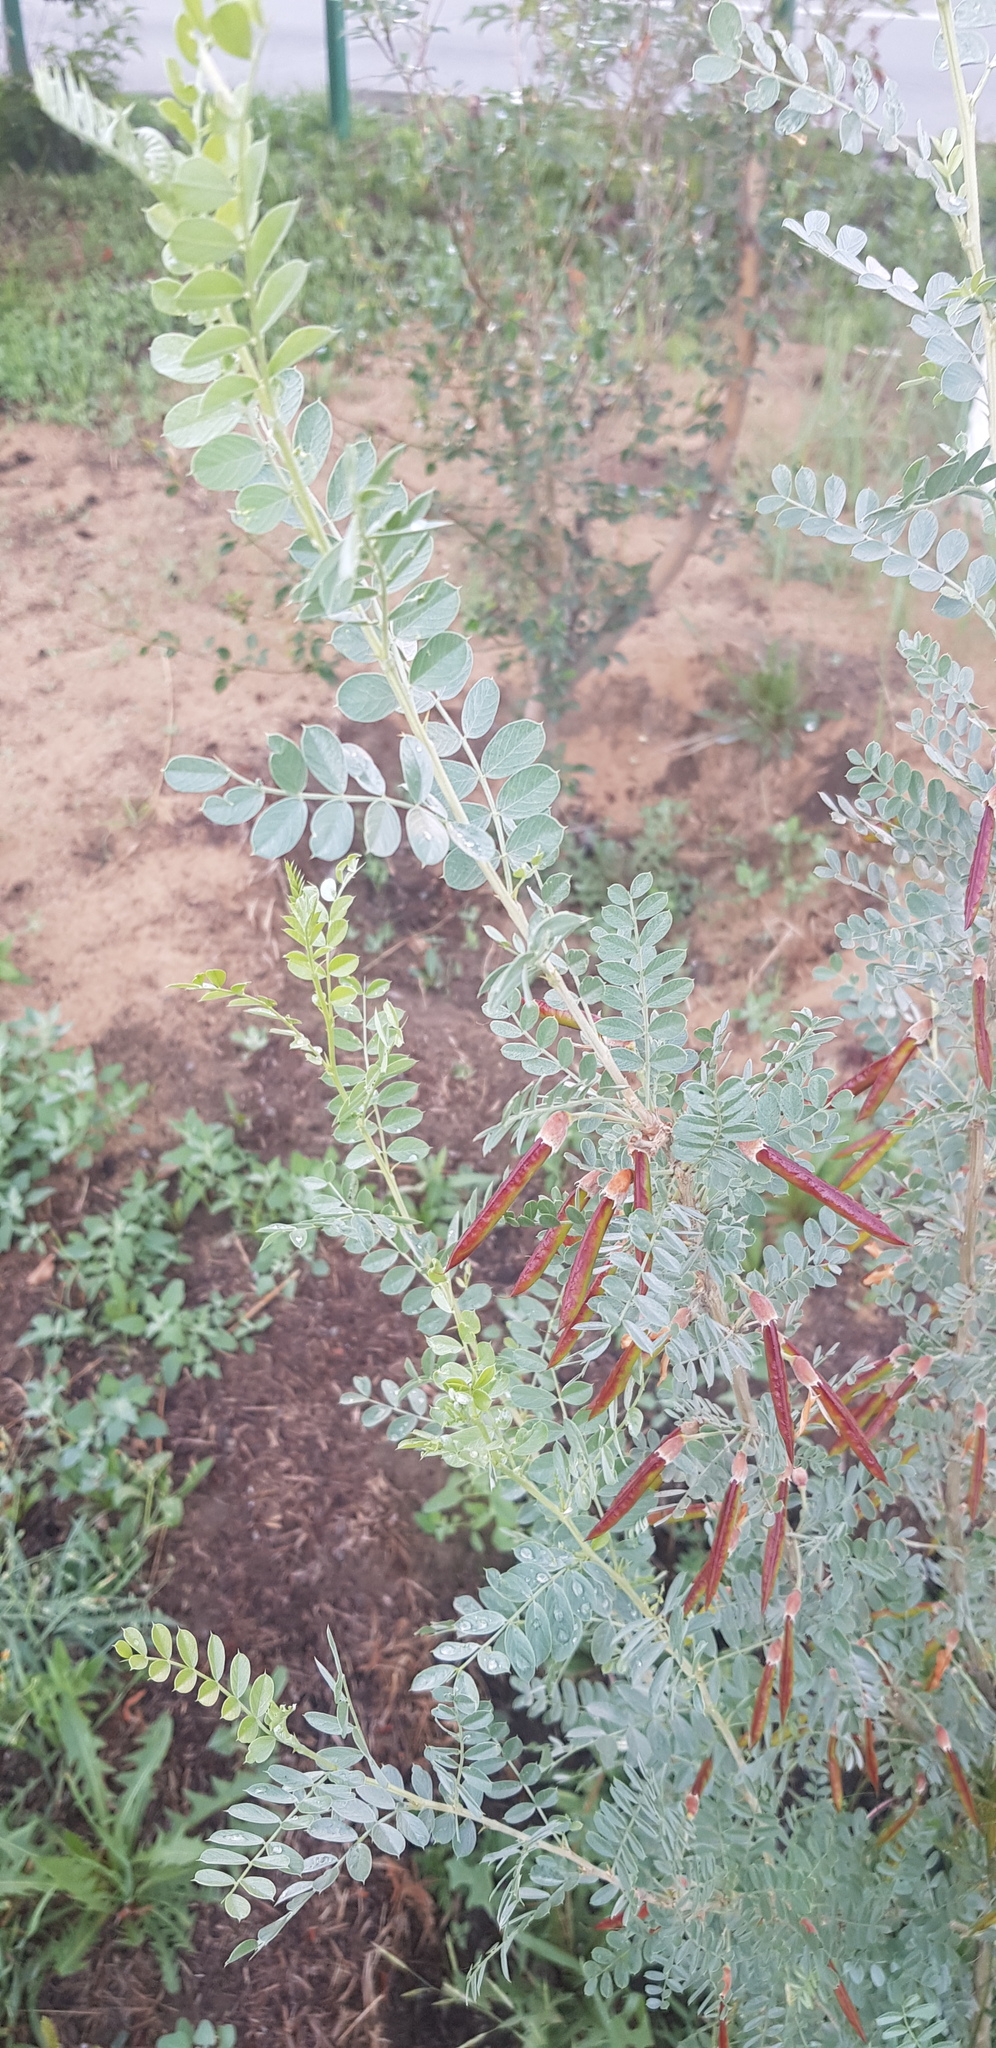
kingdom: Plantae
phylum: Tracheophyta
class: Magnoliopsida
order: Fabales
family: Fabaceae
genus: Caragana
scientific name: Caragana arborescens
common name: Siberian peashrub
